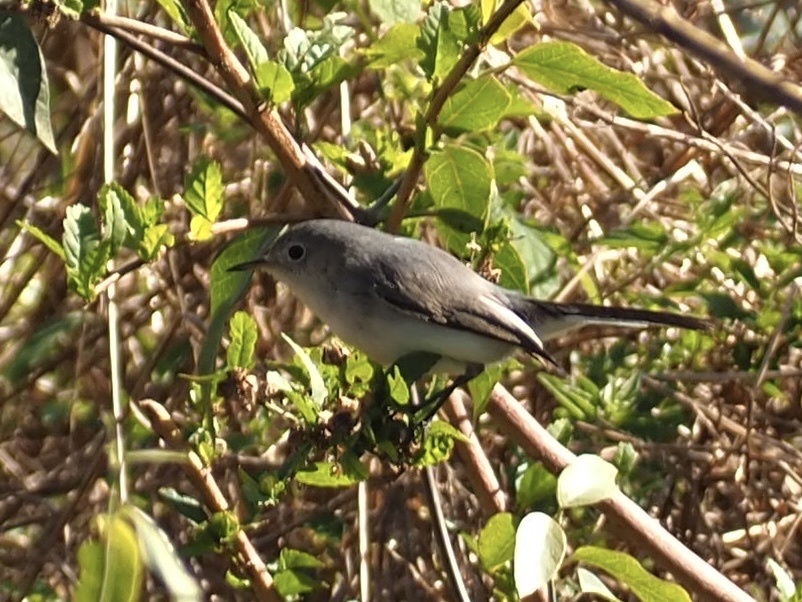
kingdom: Animalia
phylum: Chordata
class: Aves
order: Passeriformes
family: Polioptilidae
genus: Polioptila
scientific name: Polioptila caerulea
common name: Blue-gray gnatcatcher
